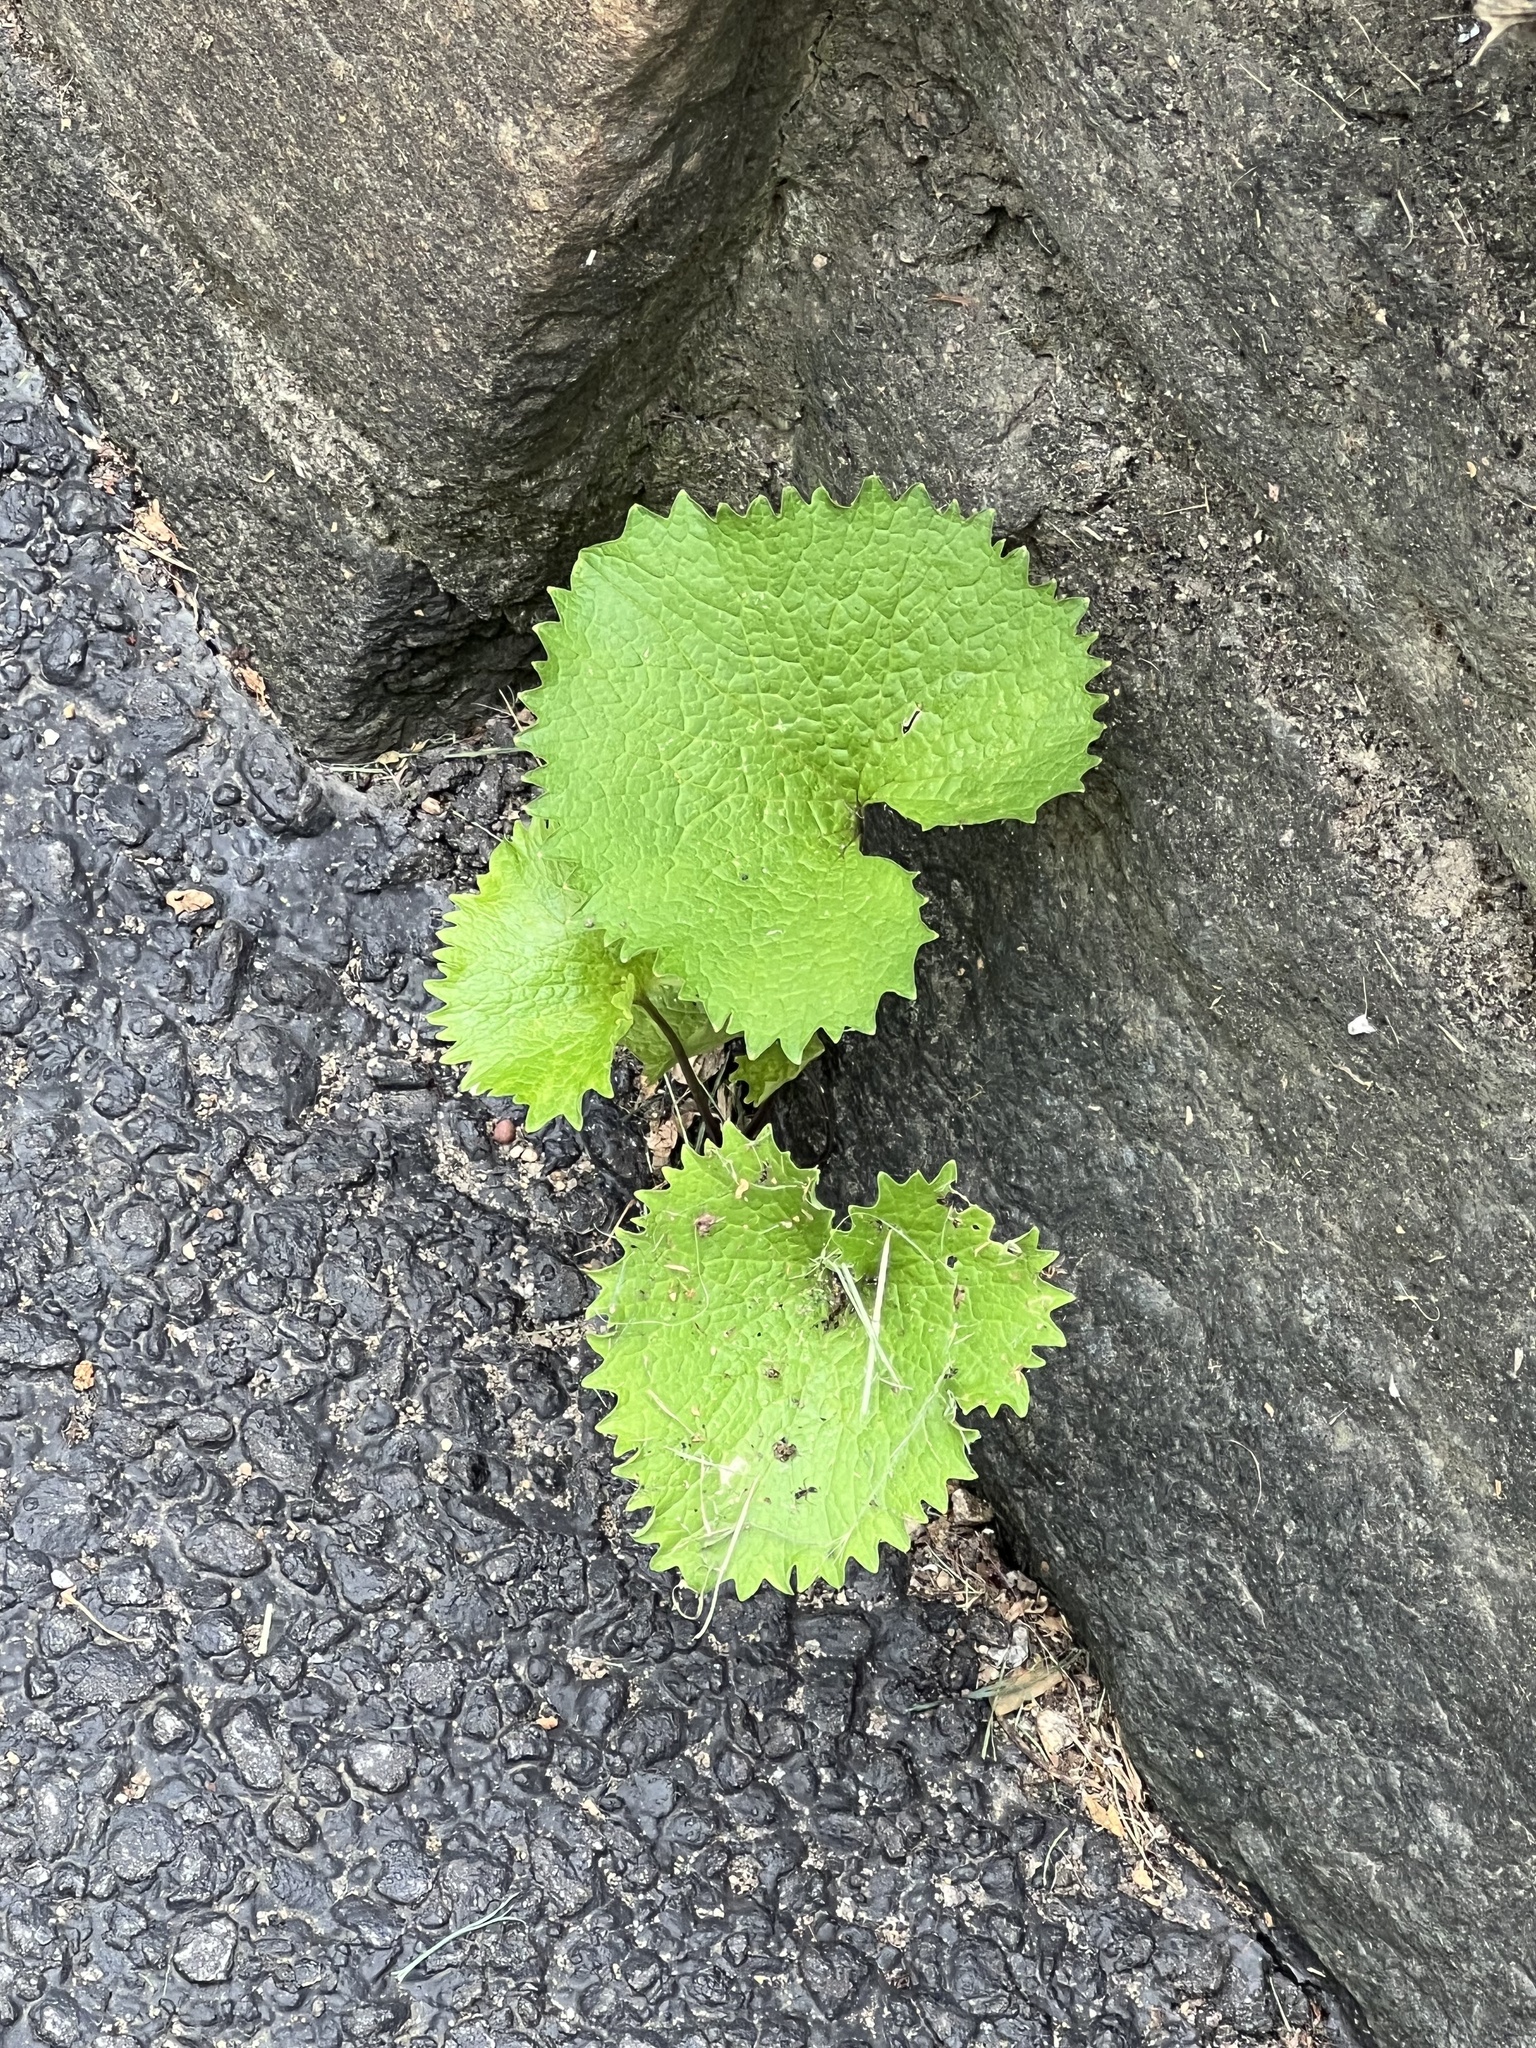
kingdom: Plantae
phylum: Tracheophyta
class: Magnoliopsida
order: Brassicales
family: Brassicaceae
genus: Alliaria
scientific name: Alliaria petiolata
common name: Garlic mustard
